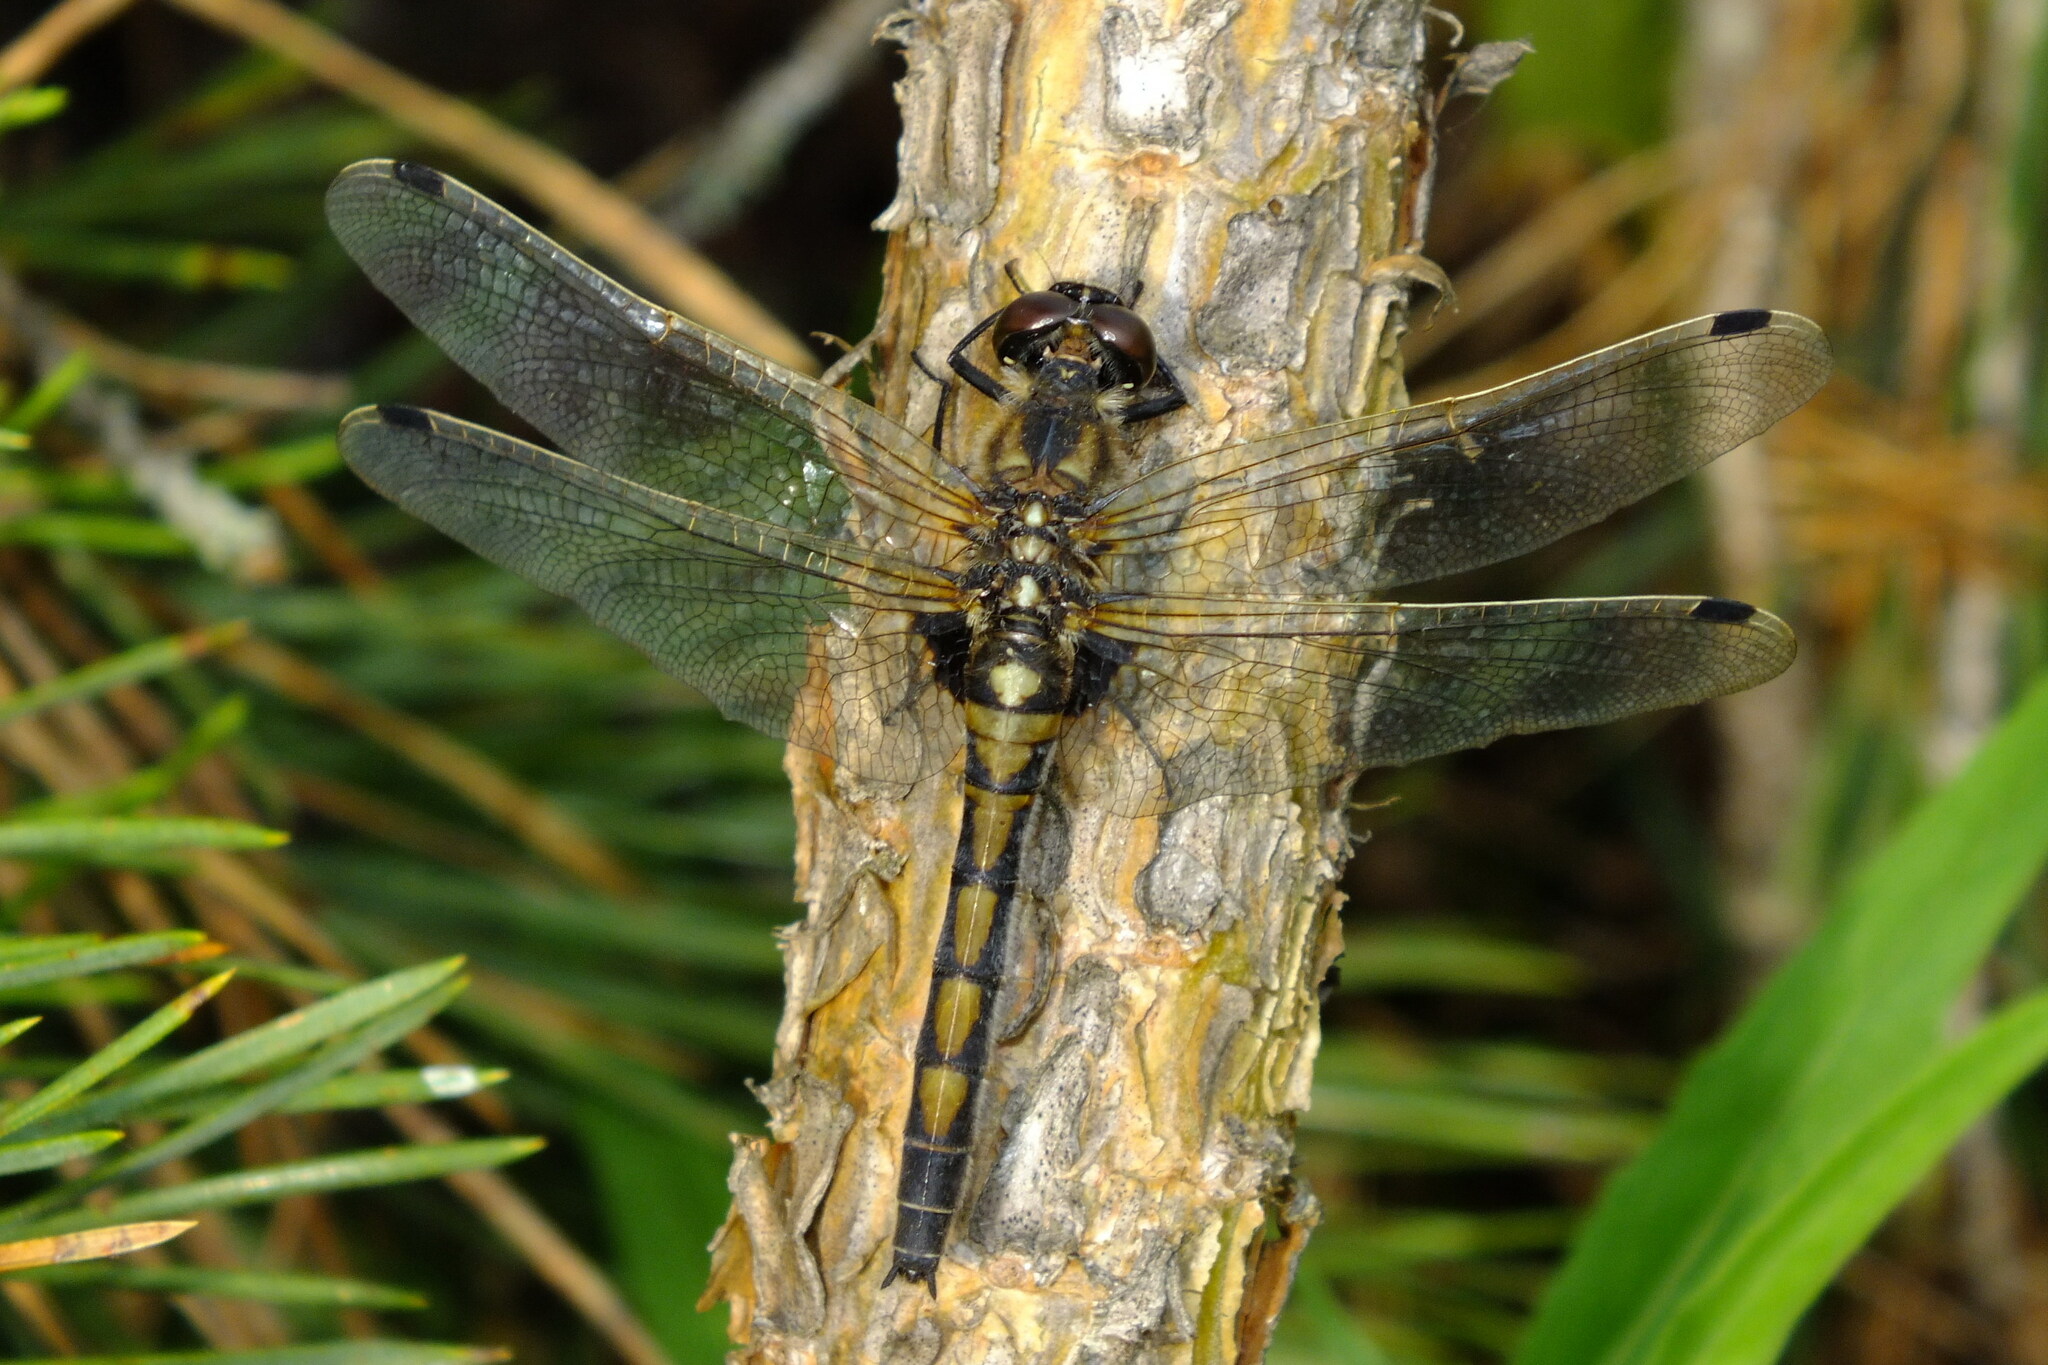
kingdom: Animalia
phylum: Arthropoda
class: Insecta
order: Odonata
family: Libellulidae
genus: Leucorrhinia
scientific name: Leucorrhinia rubicunda
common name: Ruby whiteface
